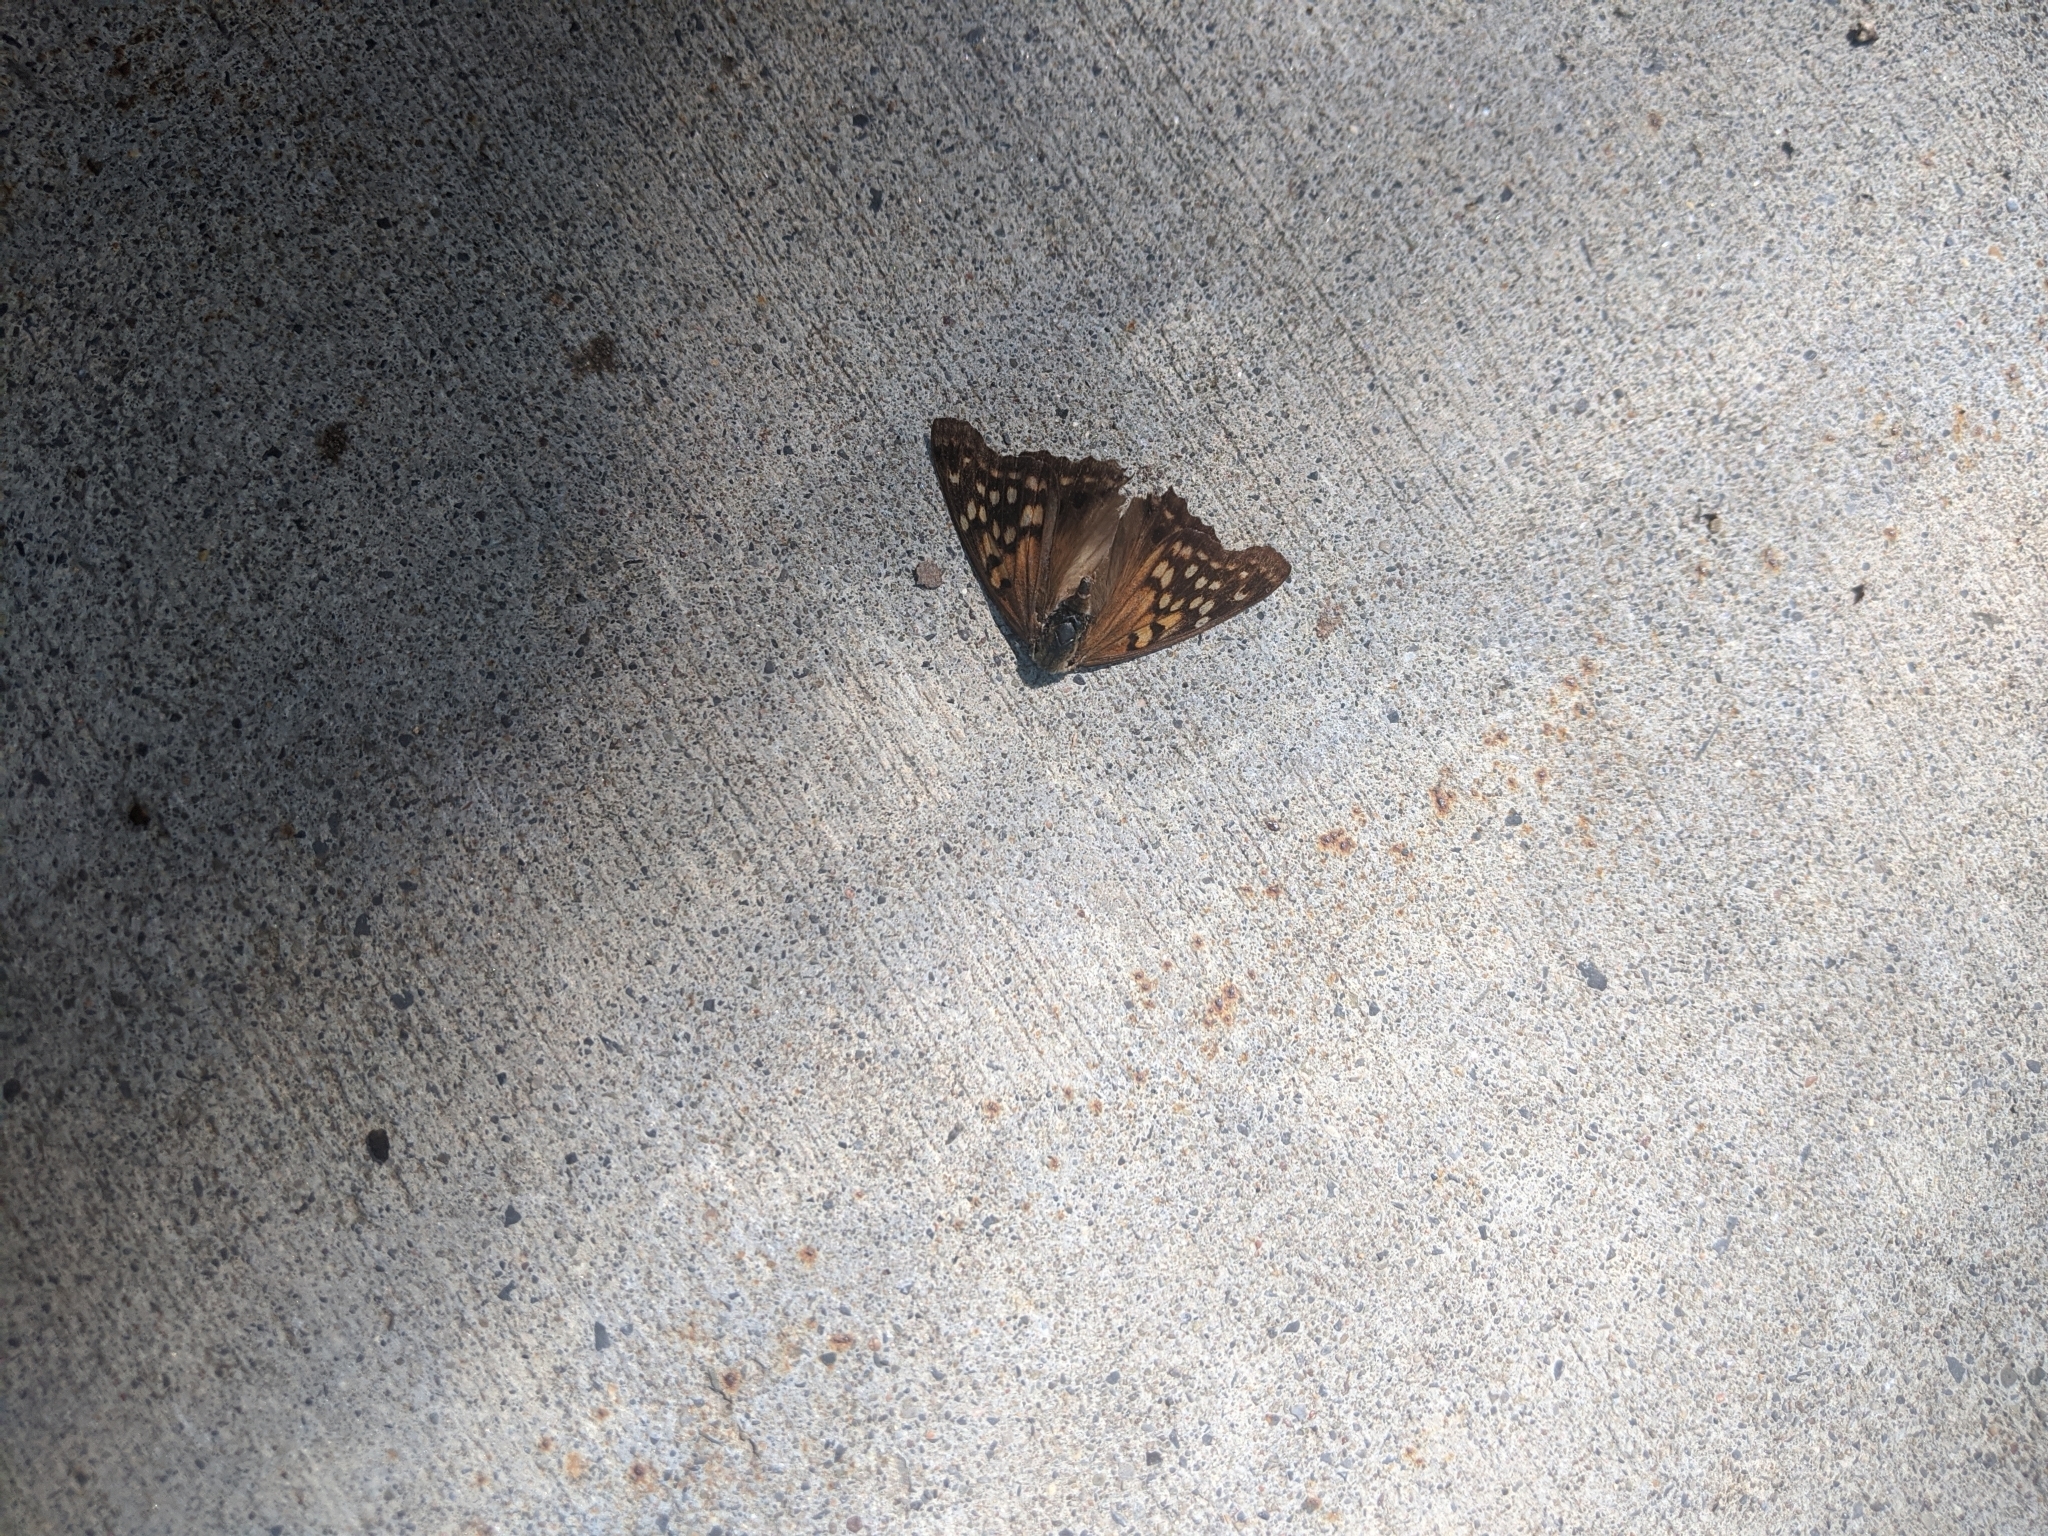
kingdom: Animalia
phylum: Arthropoda
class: Insecta
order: Lepidoptera
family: Nymphalidae
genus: Asterocampa
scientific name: Asterocampa clyton
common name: Tawny emperor
